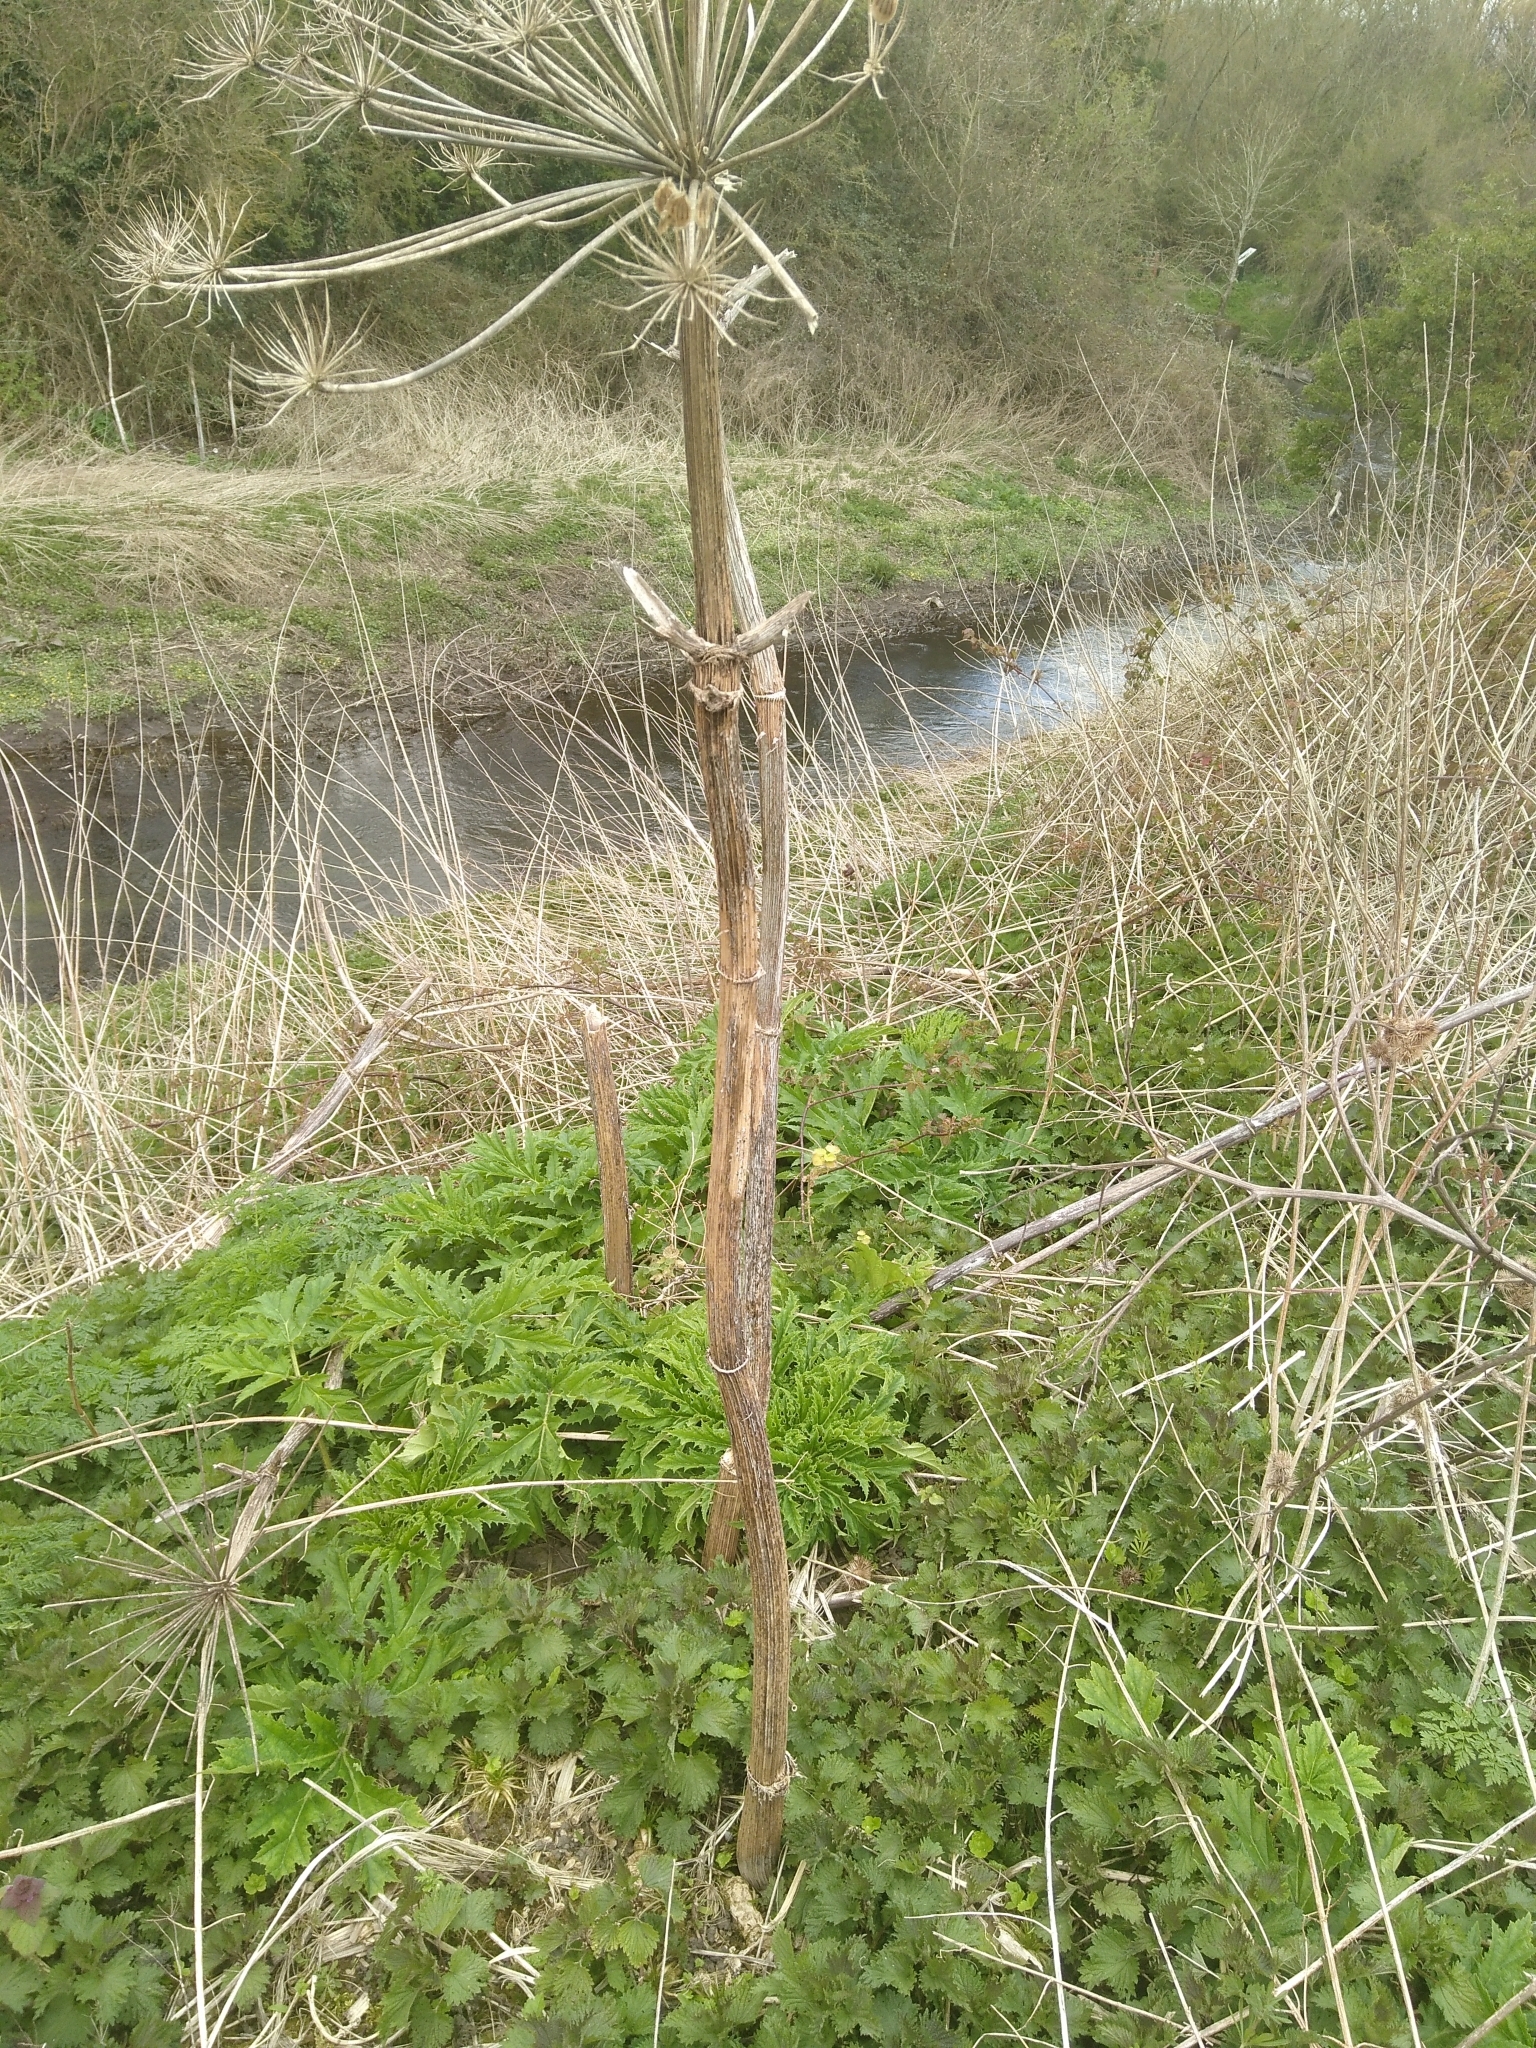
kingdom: Plantae
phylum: Tracheophyta
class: Magnoliopsida
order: Apiales
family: Apiaceae
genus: Heracleum
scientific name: Heracleum mantegazzianum
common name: Giant hogweed
